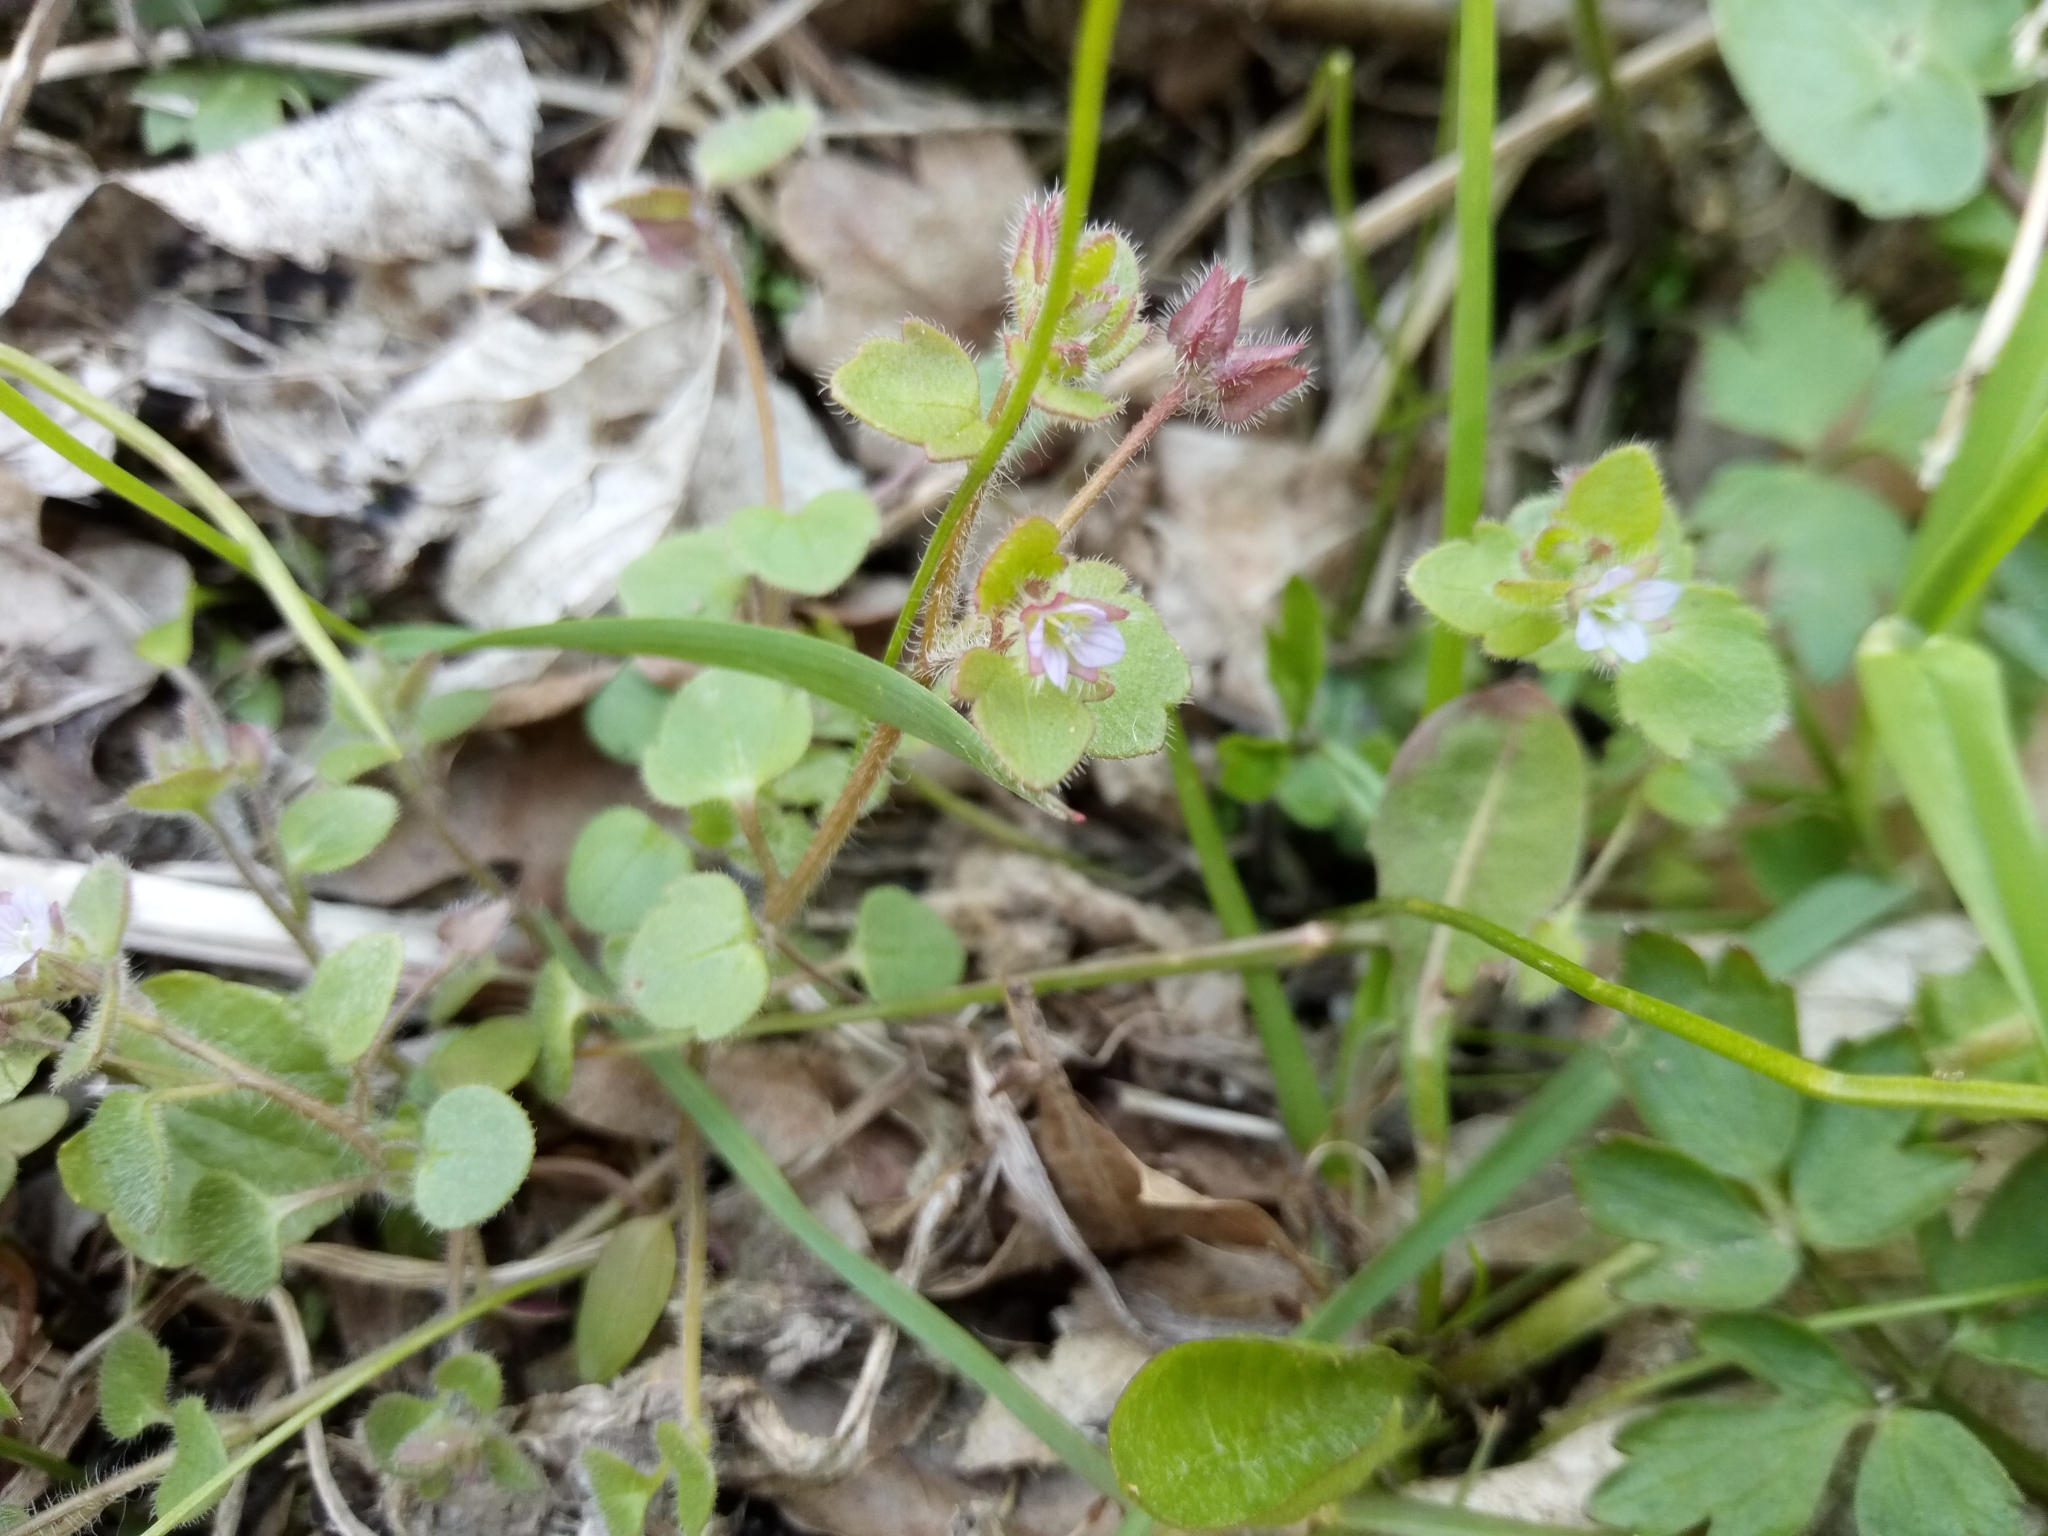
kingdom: Plantae
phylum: Tracheophyta
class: Magnoliopsida
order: Lamiales
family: Plantaginaceae
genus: Veronica
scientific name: Veronica sublobata
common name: False ivy-leaved speedwell
